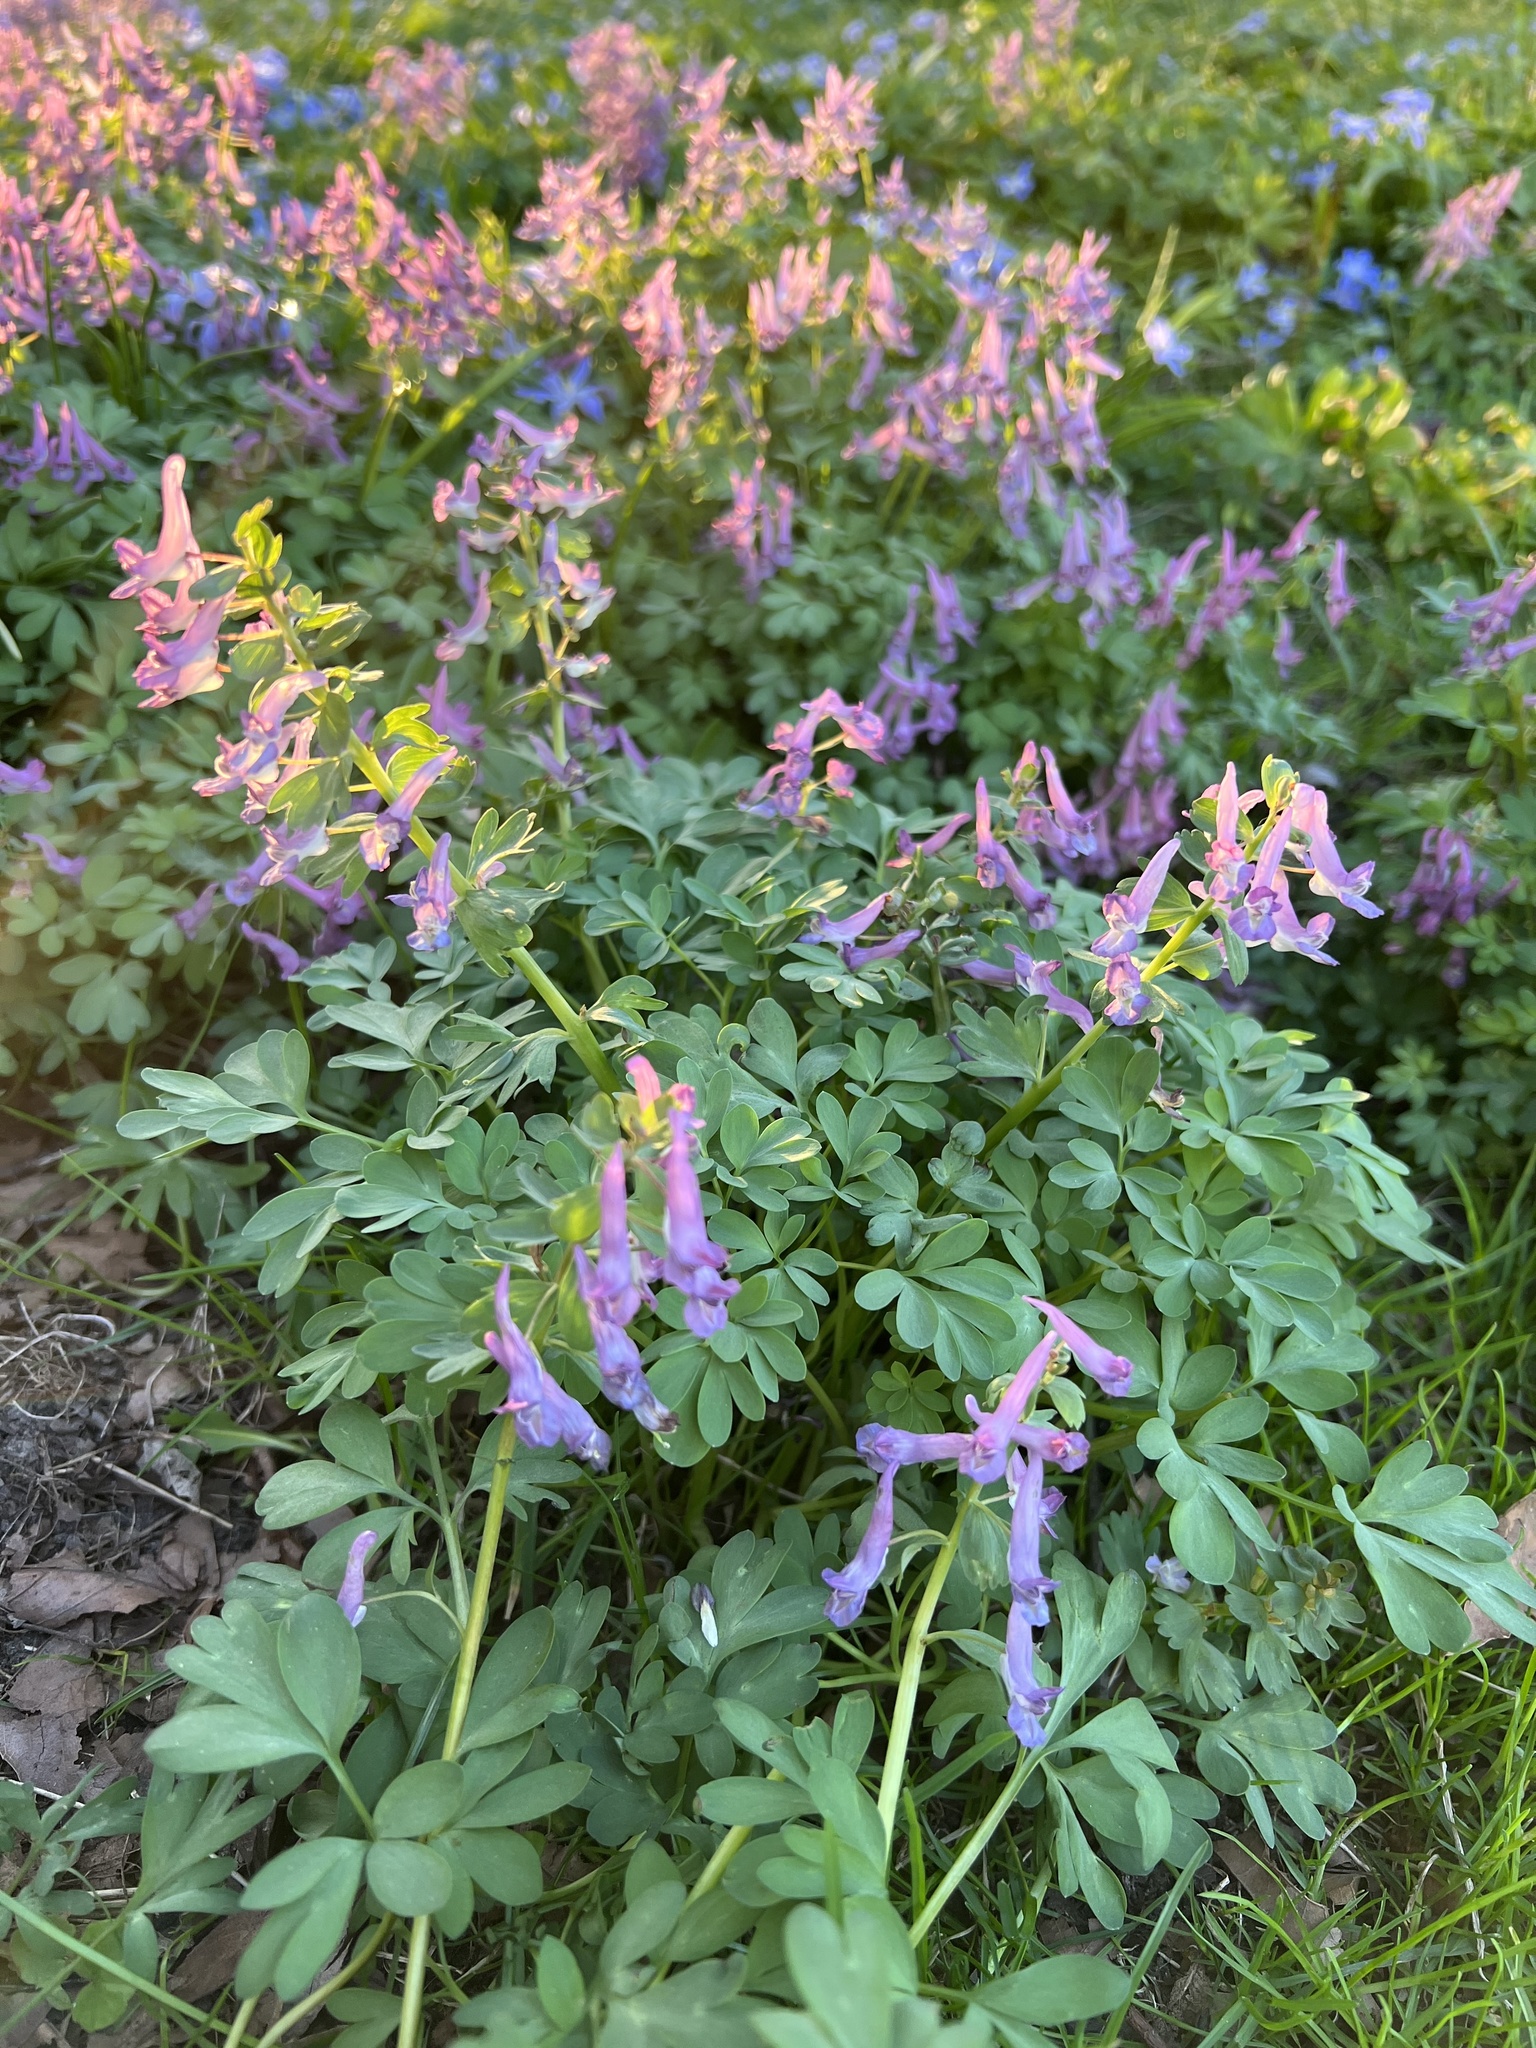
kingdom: Plantae
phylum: Tracheophyta
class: Magnoliopsida
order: Ranunculales
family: Papaveraceae
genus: Corydalis
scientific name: Corydalis solida
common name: Bird-in-a-bush
